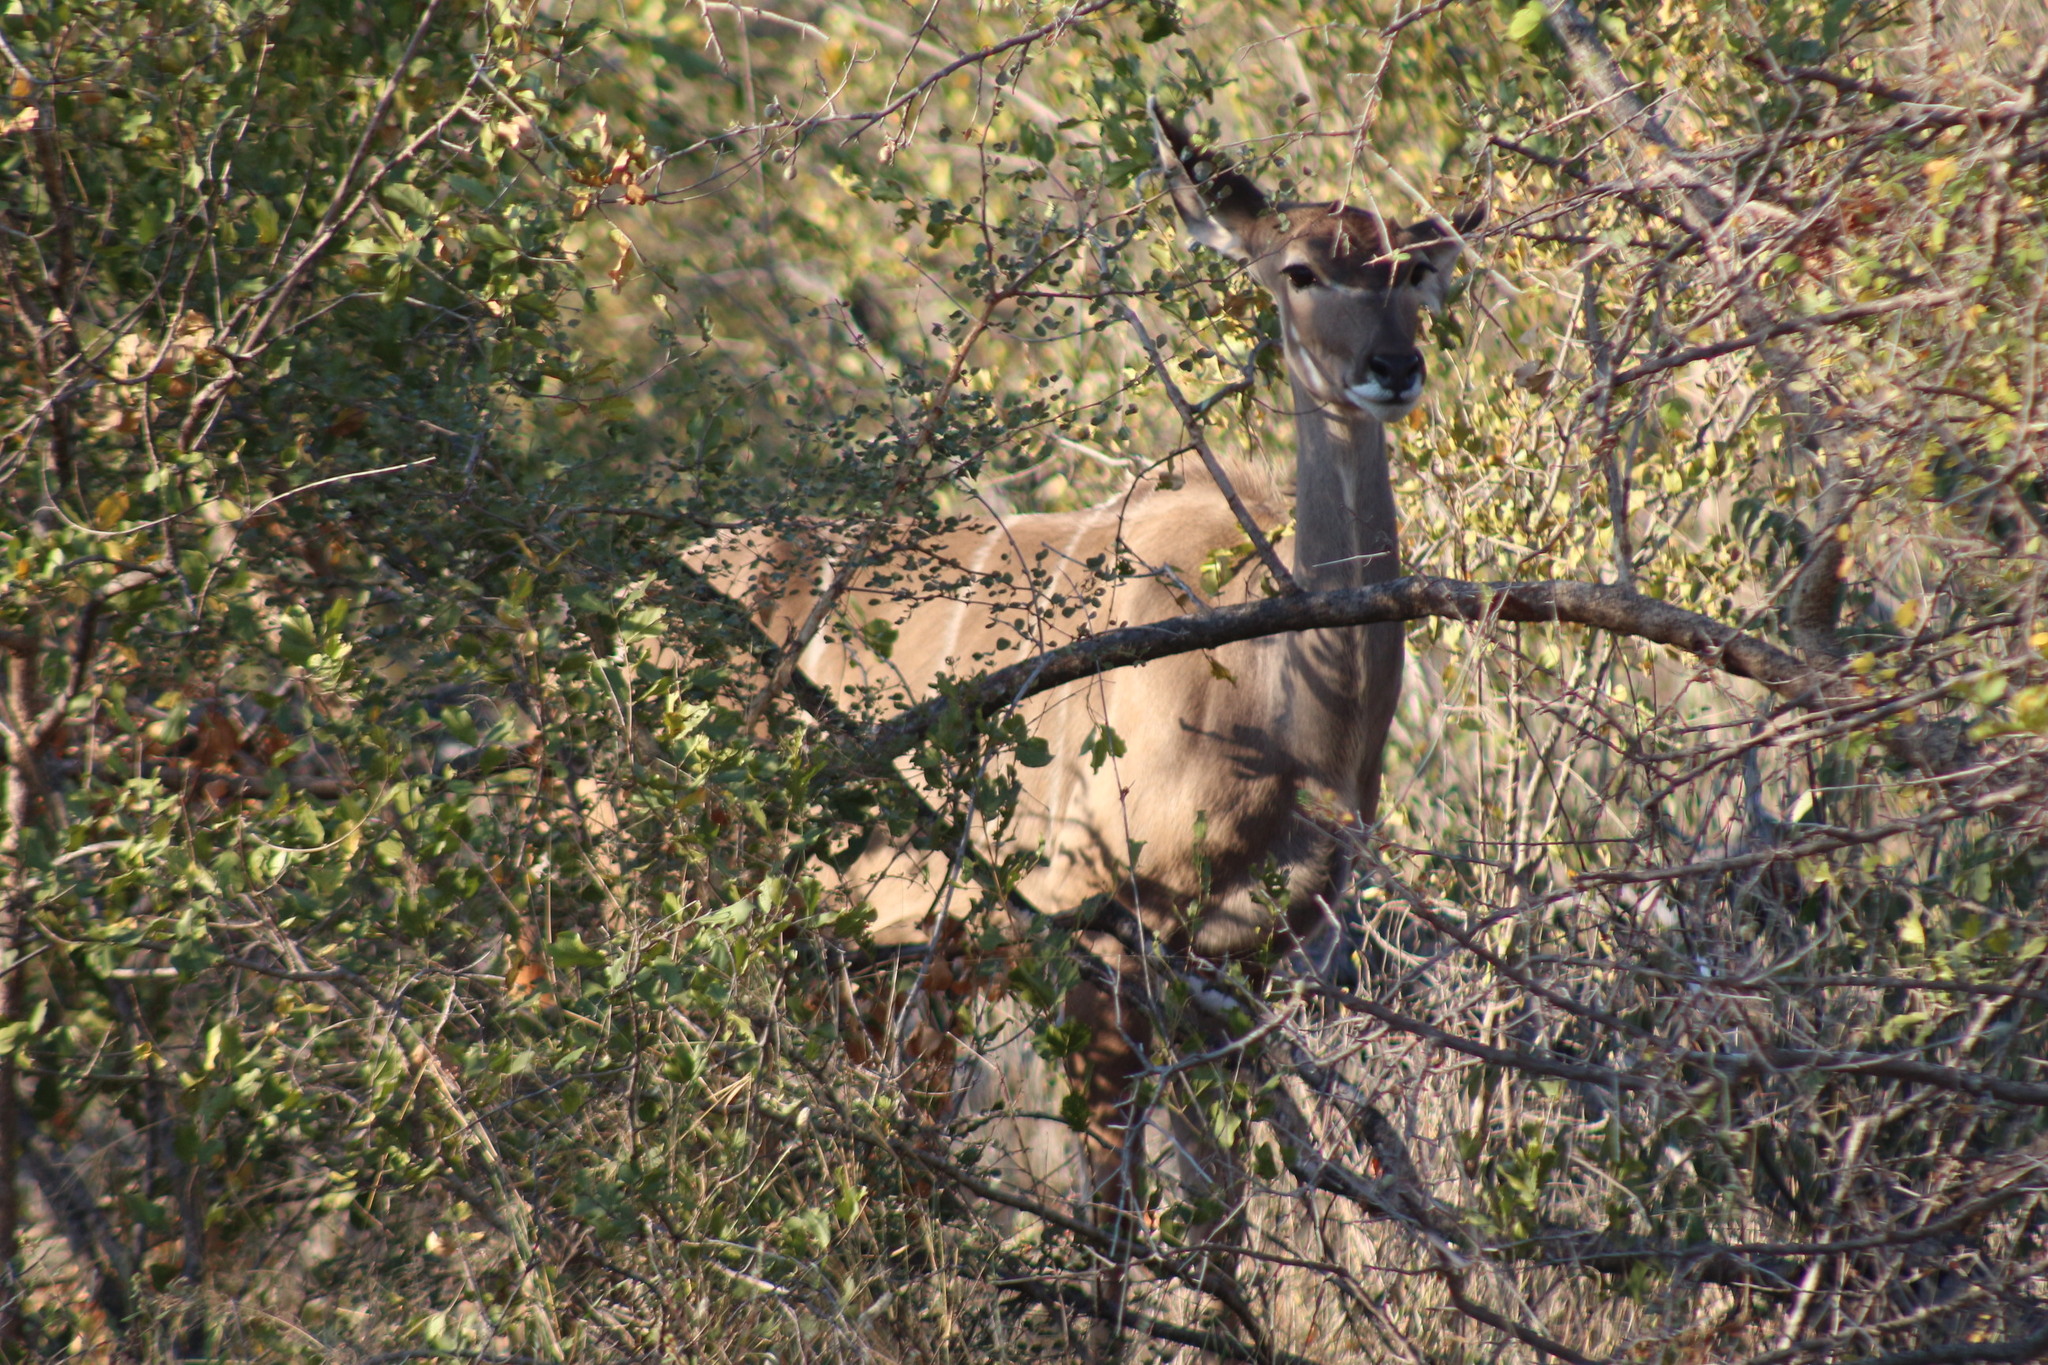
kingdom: Animalia
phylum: Chordata
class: Mammalia
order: Artiodactyla
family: Bovidae
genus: Tragelaphus
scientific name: Tragelaphus strepsiceros
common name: Greater kudu
